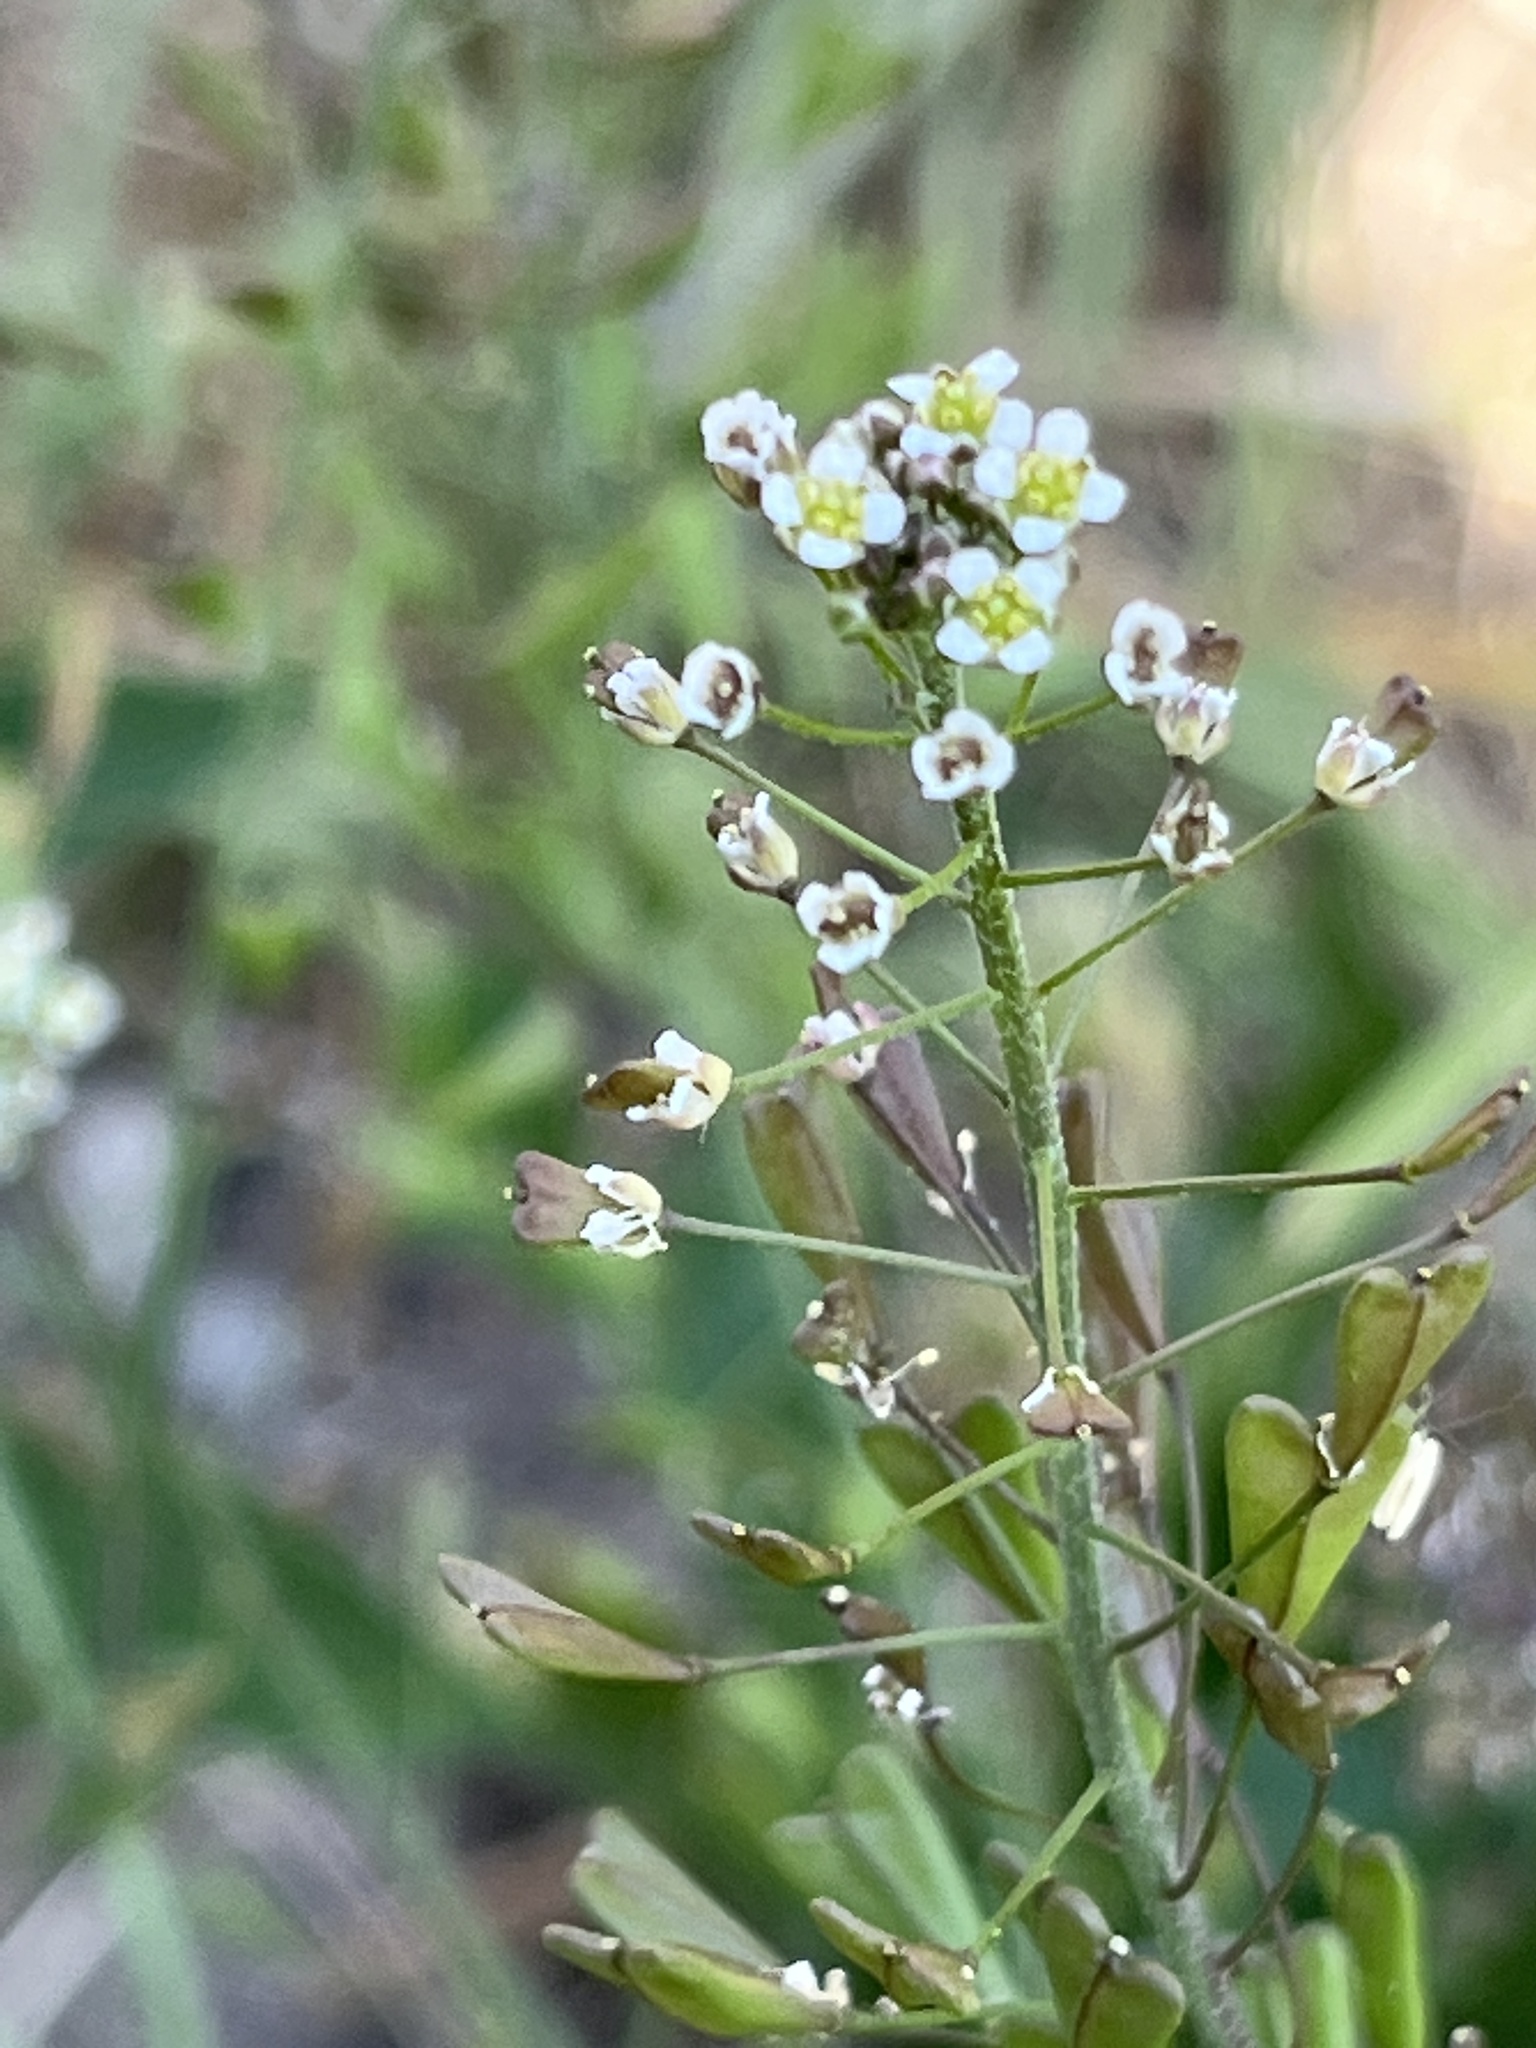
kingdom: Plantae
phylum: Tracheophyta
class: Magnoliopsida
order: Brassicales
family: Brassicaceae
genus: Capsella
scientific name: Capsella bursa-pastoris
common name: Shepherd's purse
